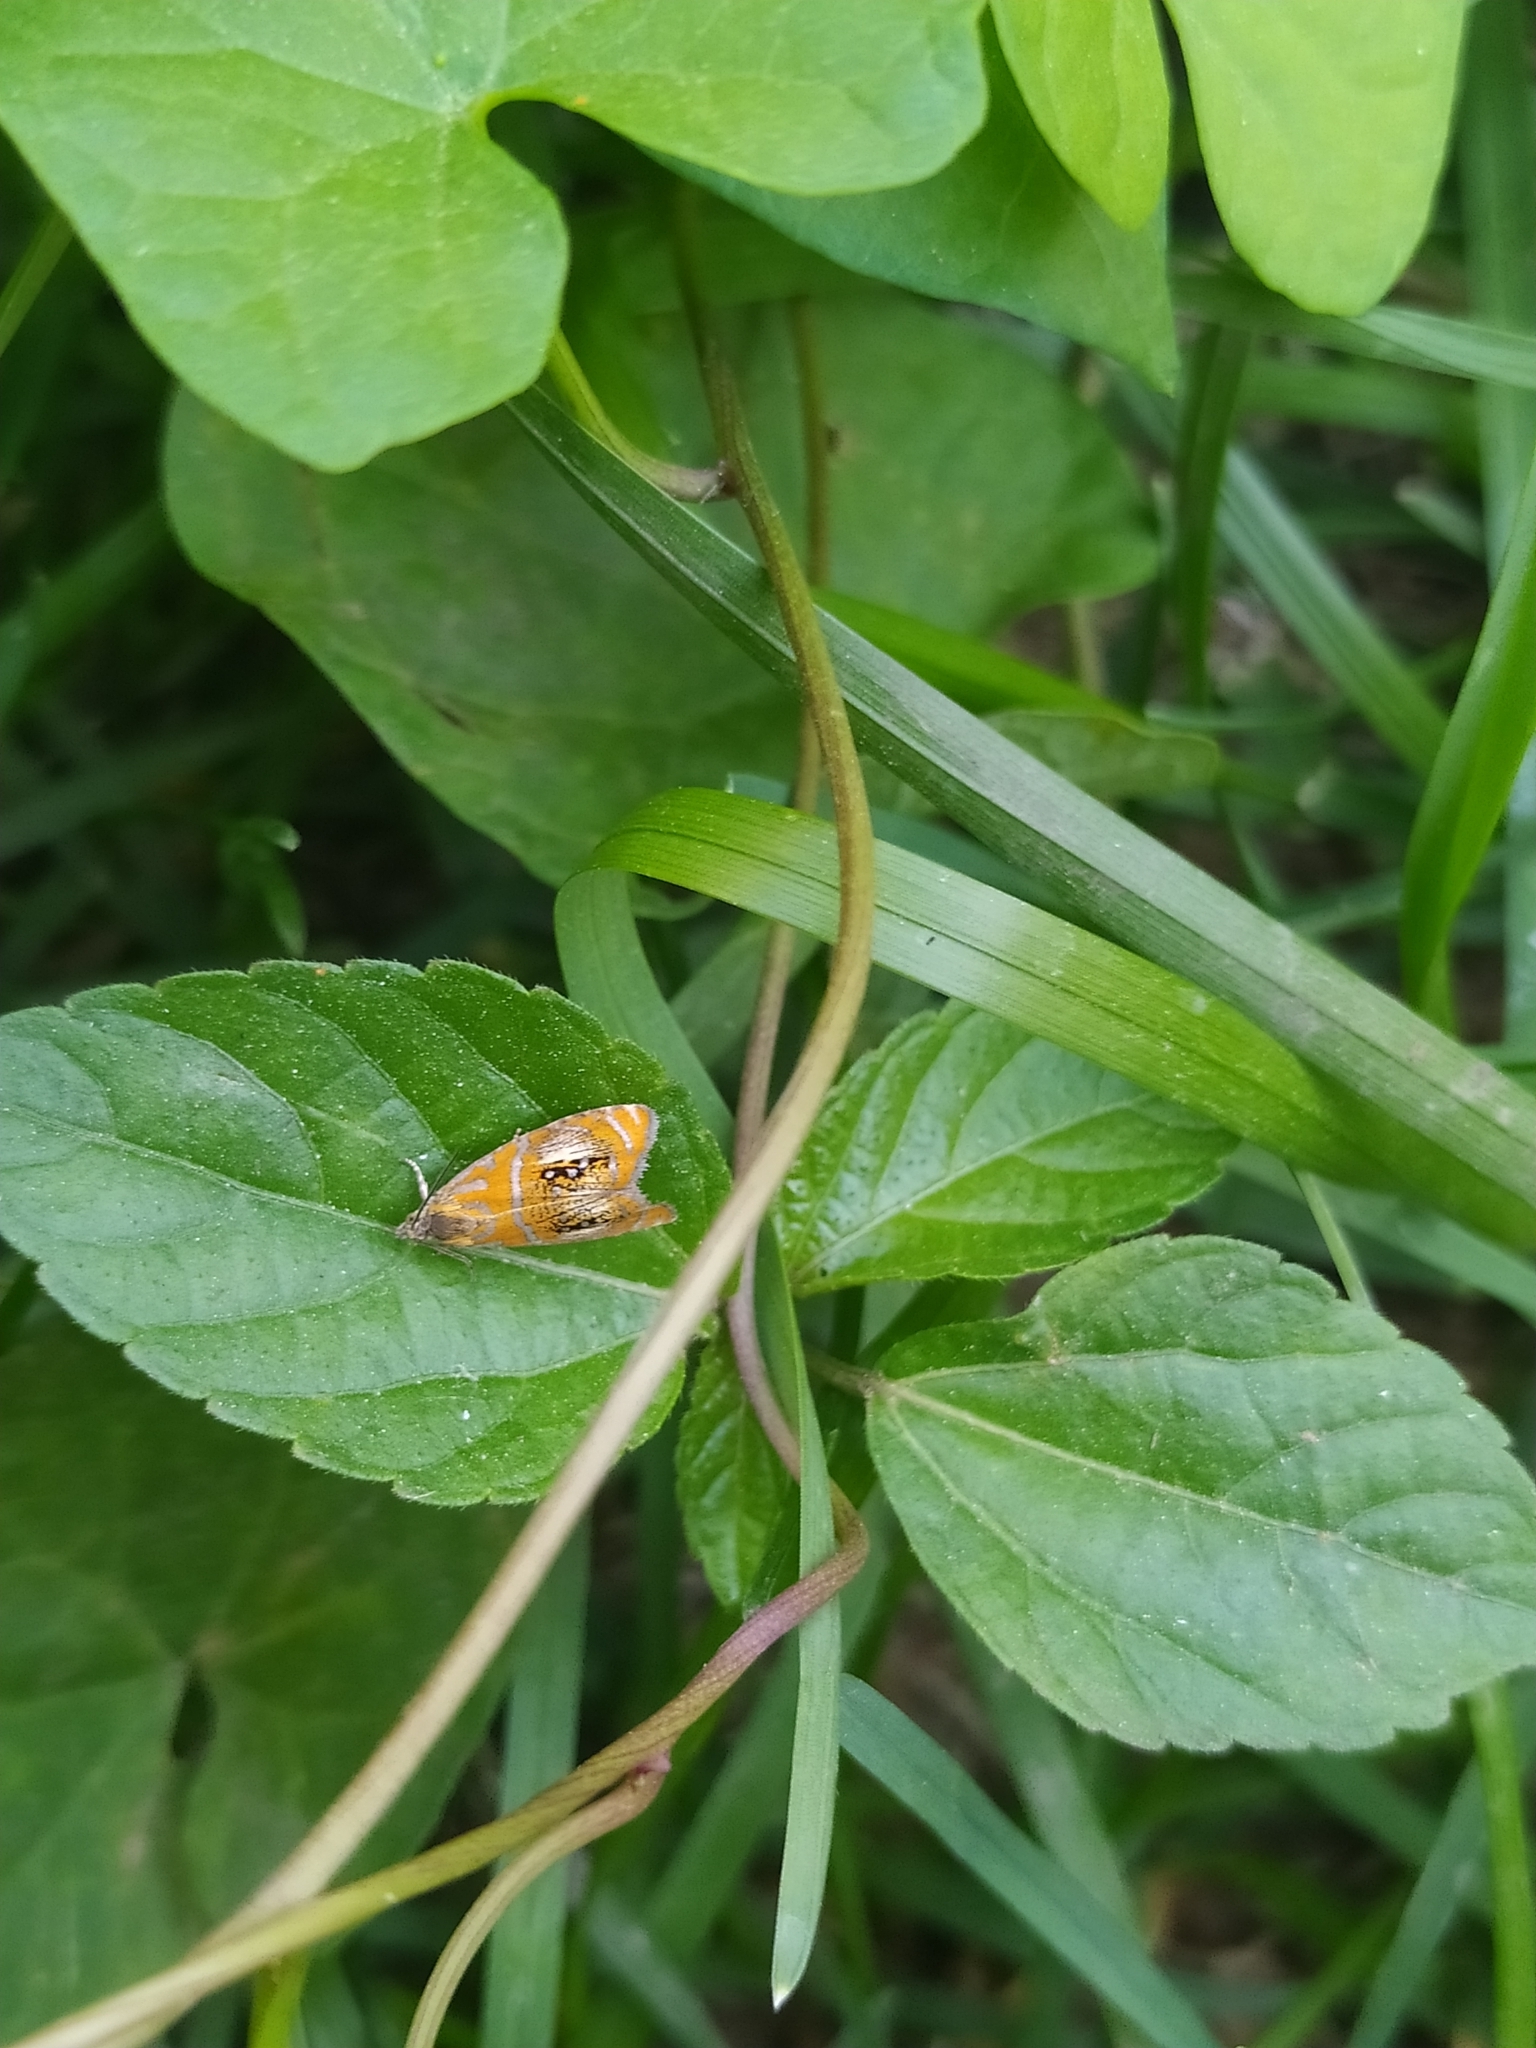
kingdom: Animalia
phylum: Arthropoda
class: Insecta
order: Lepidoptera
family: Tortricidae
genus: Olethreutes
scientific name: Olethreutes arcuella
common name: Arched marble
